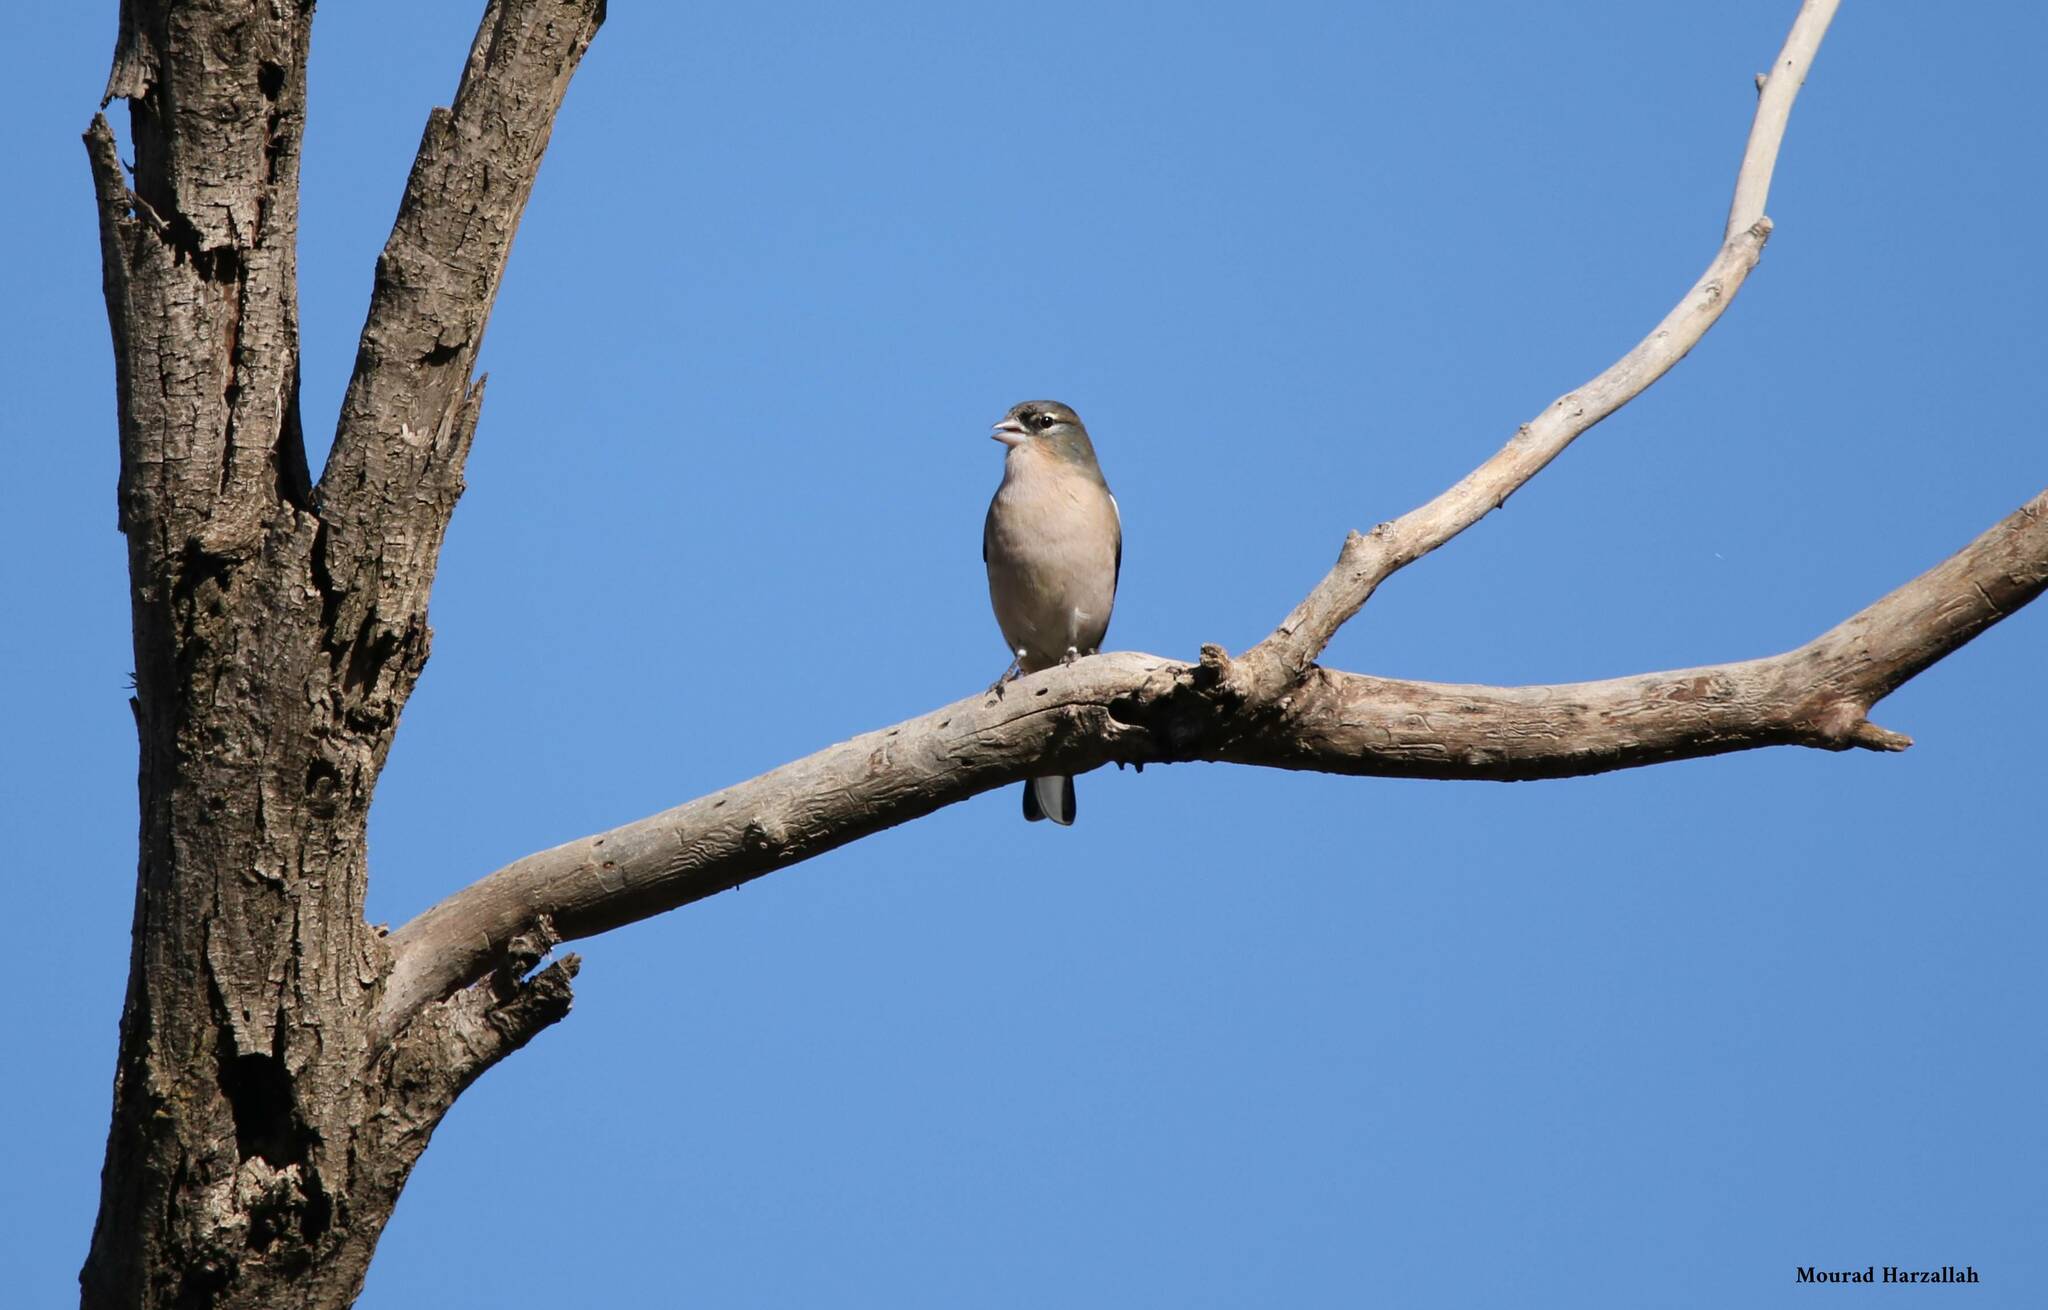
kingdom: Animalia
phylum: Chordata
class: Aves
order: Passeriformes
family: Fringillidae
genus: Fringilla
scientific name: Fringilla spodiogenys
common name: African chaffinch
